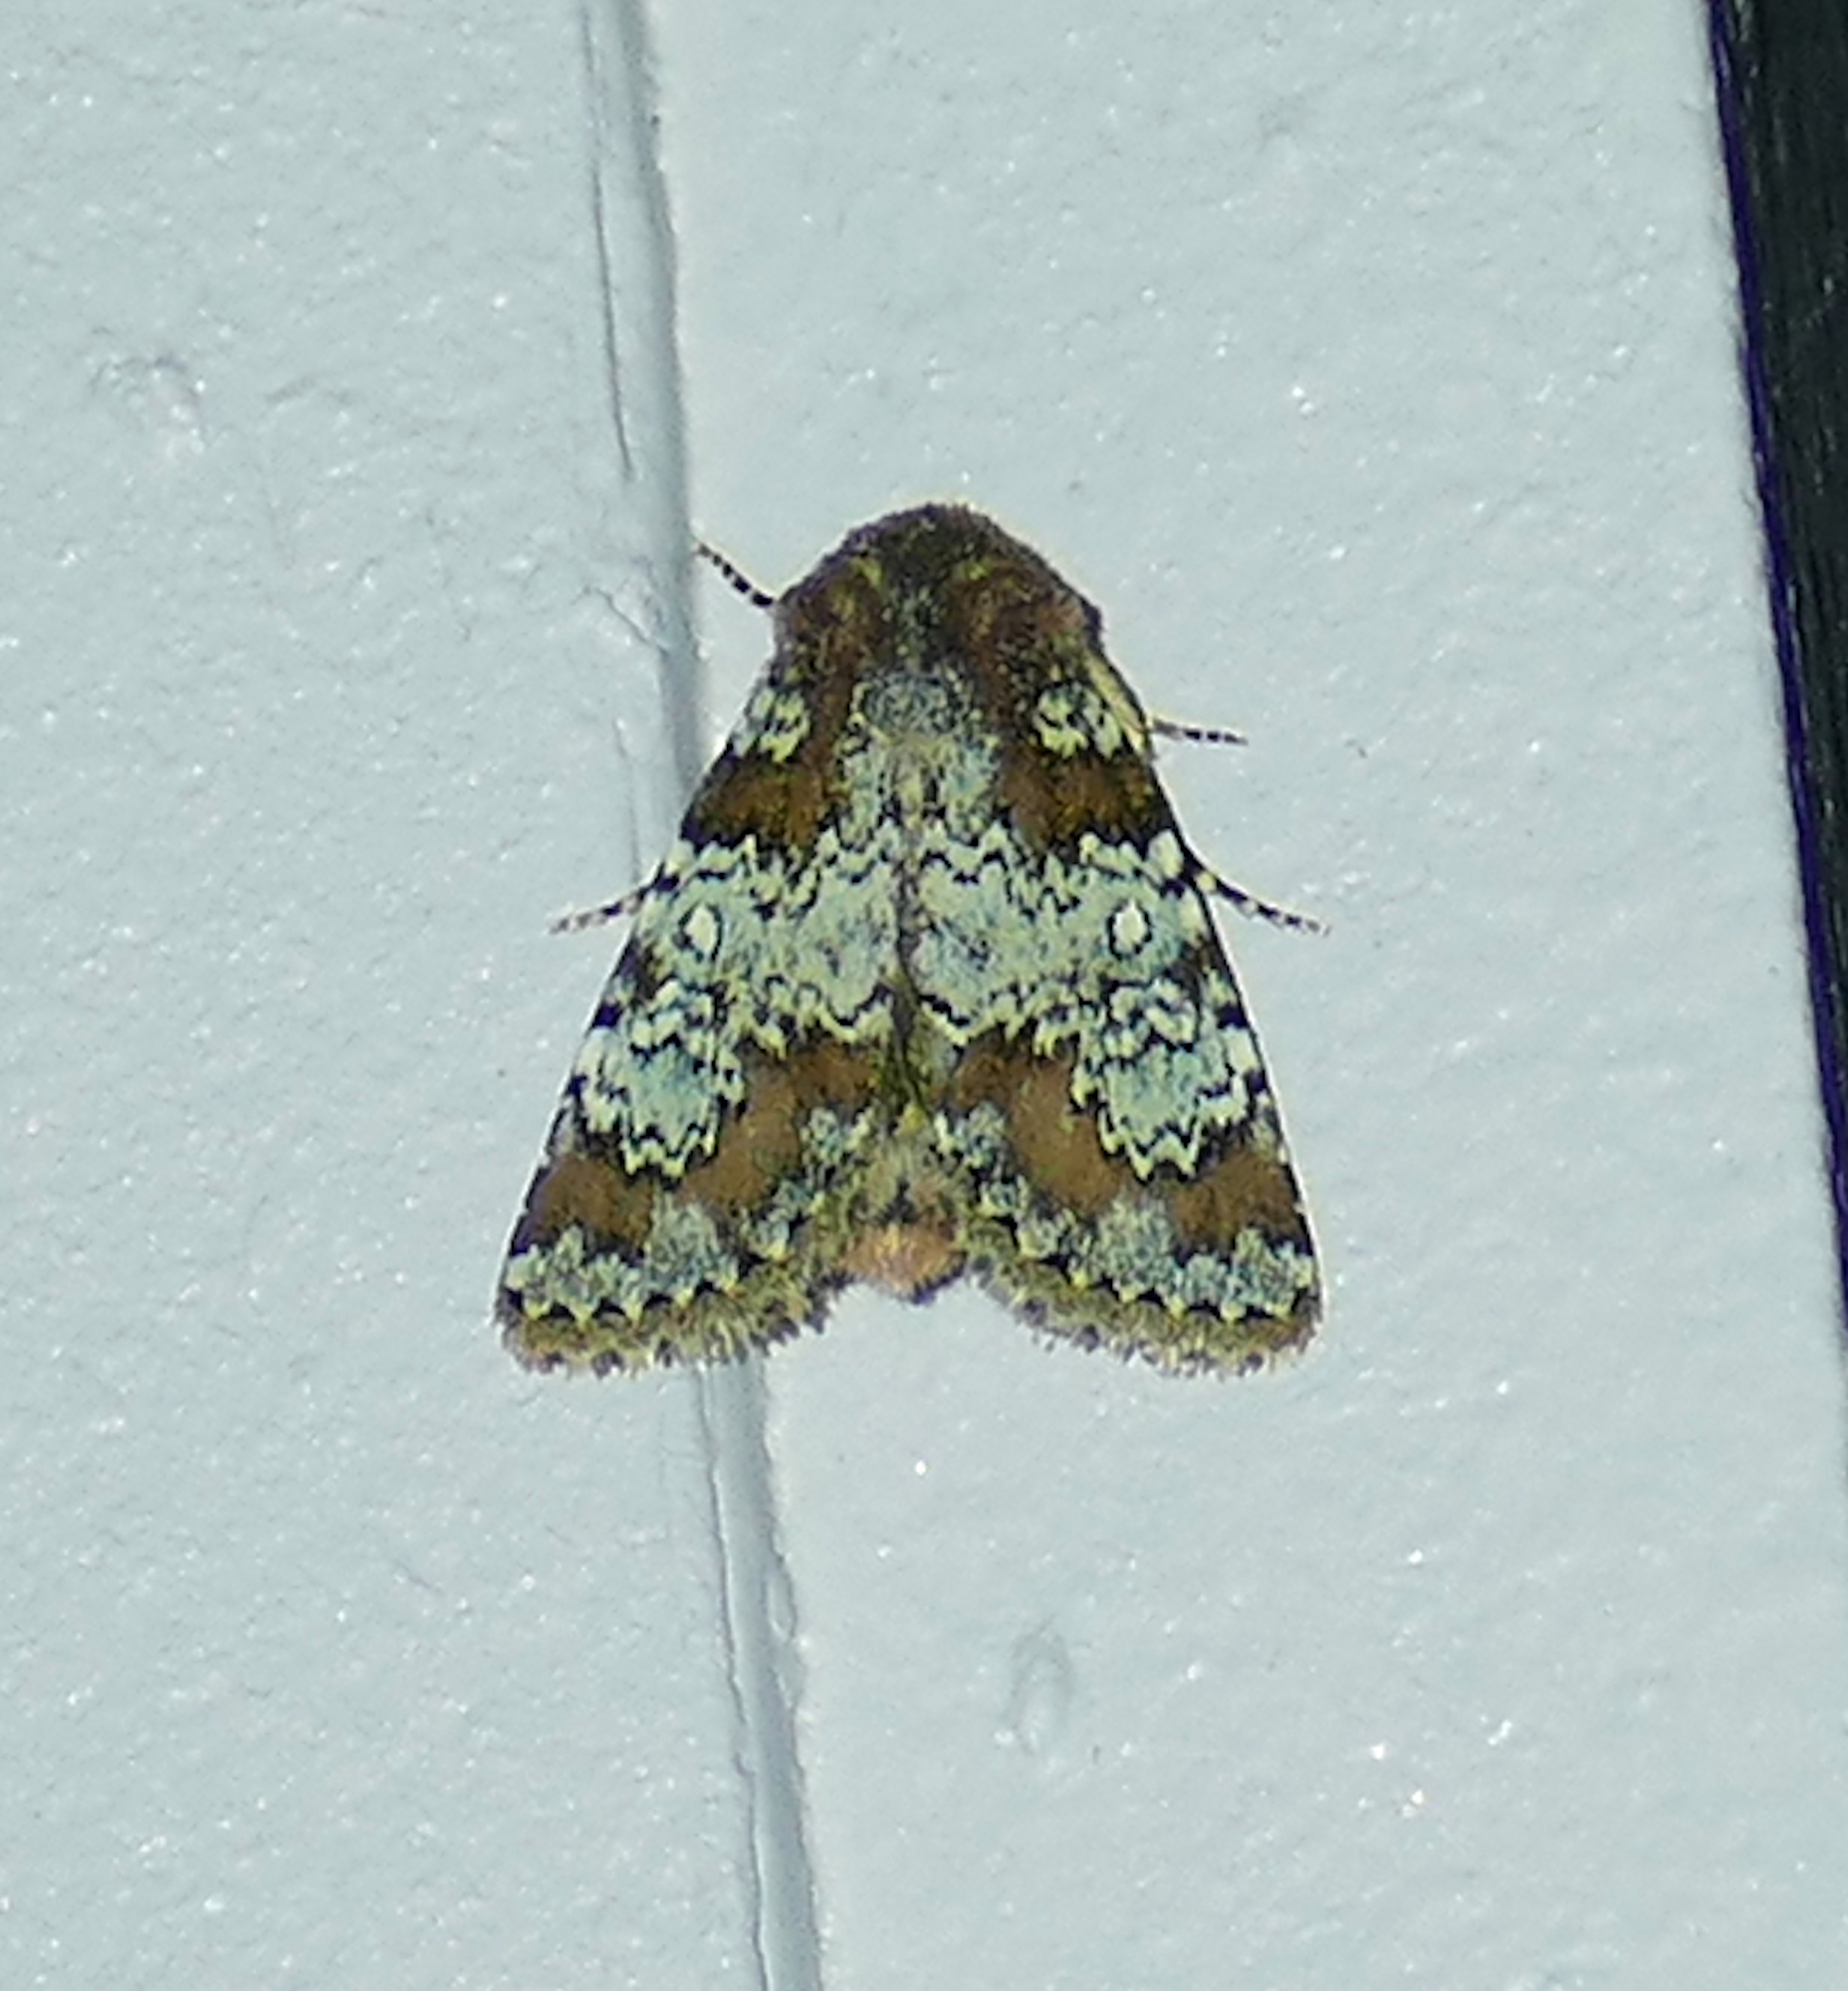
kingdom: Animalia
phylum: Arthropoda
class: Insecta
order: Lepidoptera
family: Noctuidae
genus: Hemibryomima
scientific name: Hemibryomima chryselectra
